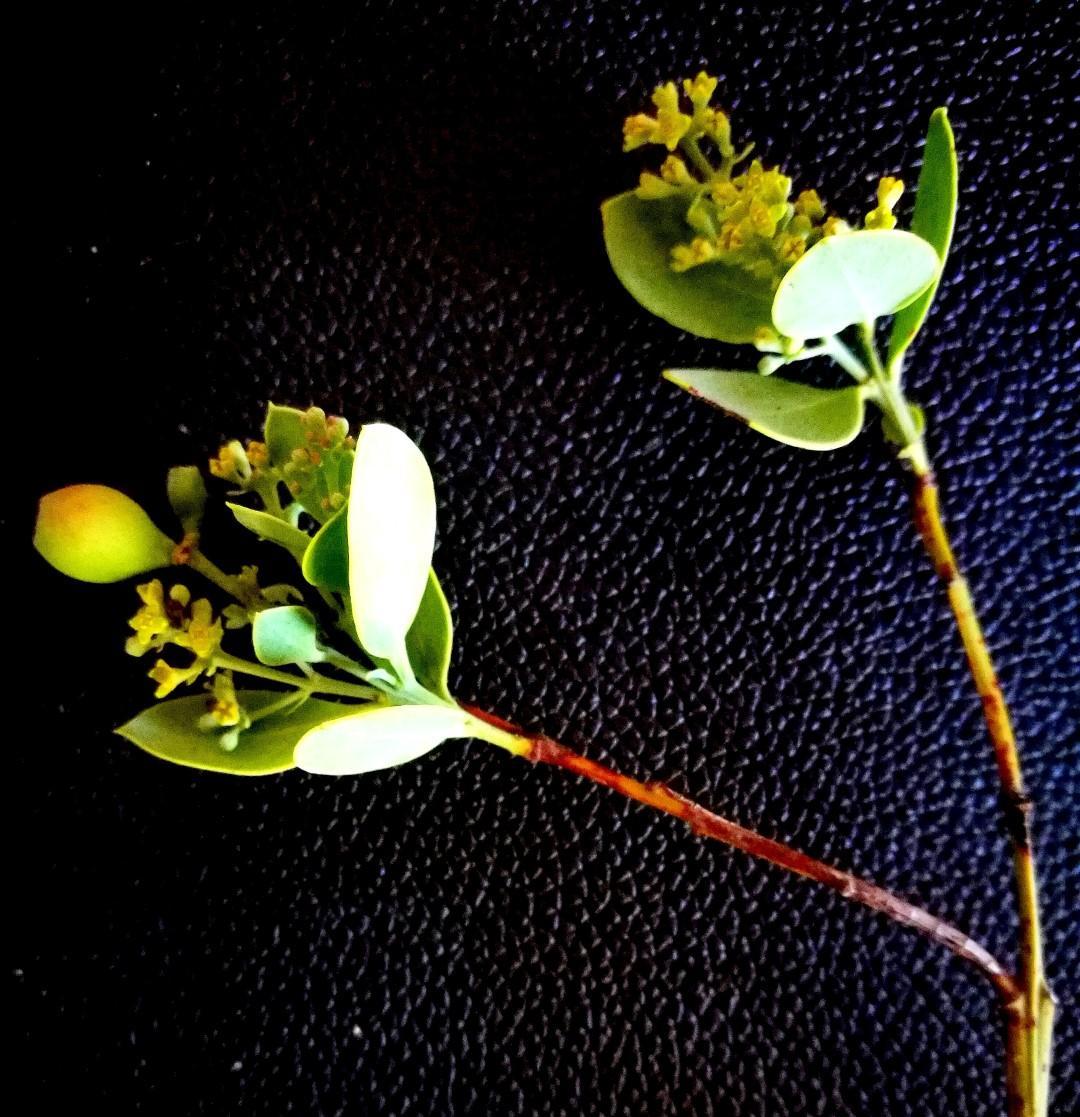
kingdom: Plantae
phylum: Tracheophyta
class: Magnoliopsida
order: Santalales
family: Santalaceae
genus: Osyris
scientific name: Osyris compressa
